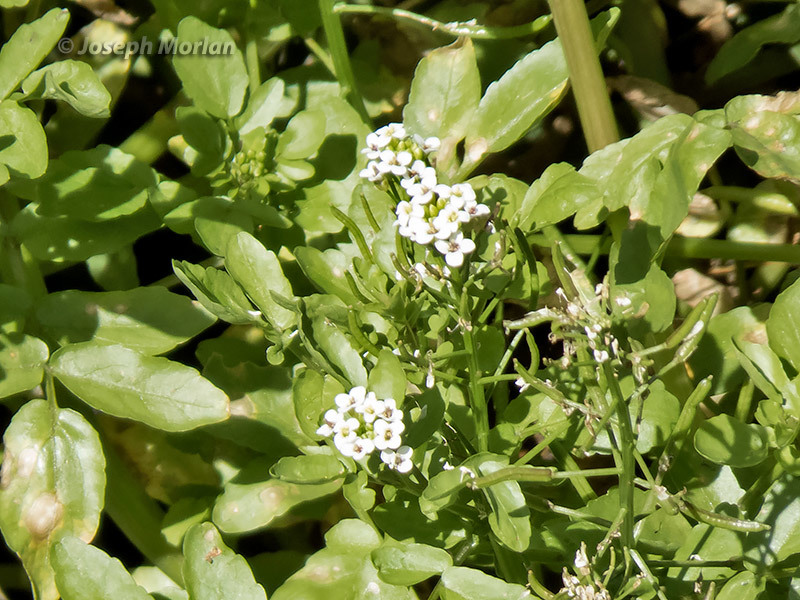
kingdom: Plantae
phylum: Tracheophyta
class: Magnoliopsida
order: Brassicales
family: Brassicaceae
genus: Nasturtium
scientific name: Nasturtium officinale
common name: Watercress
